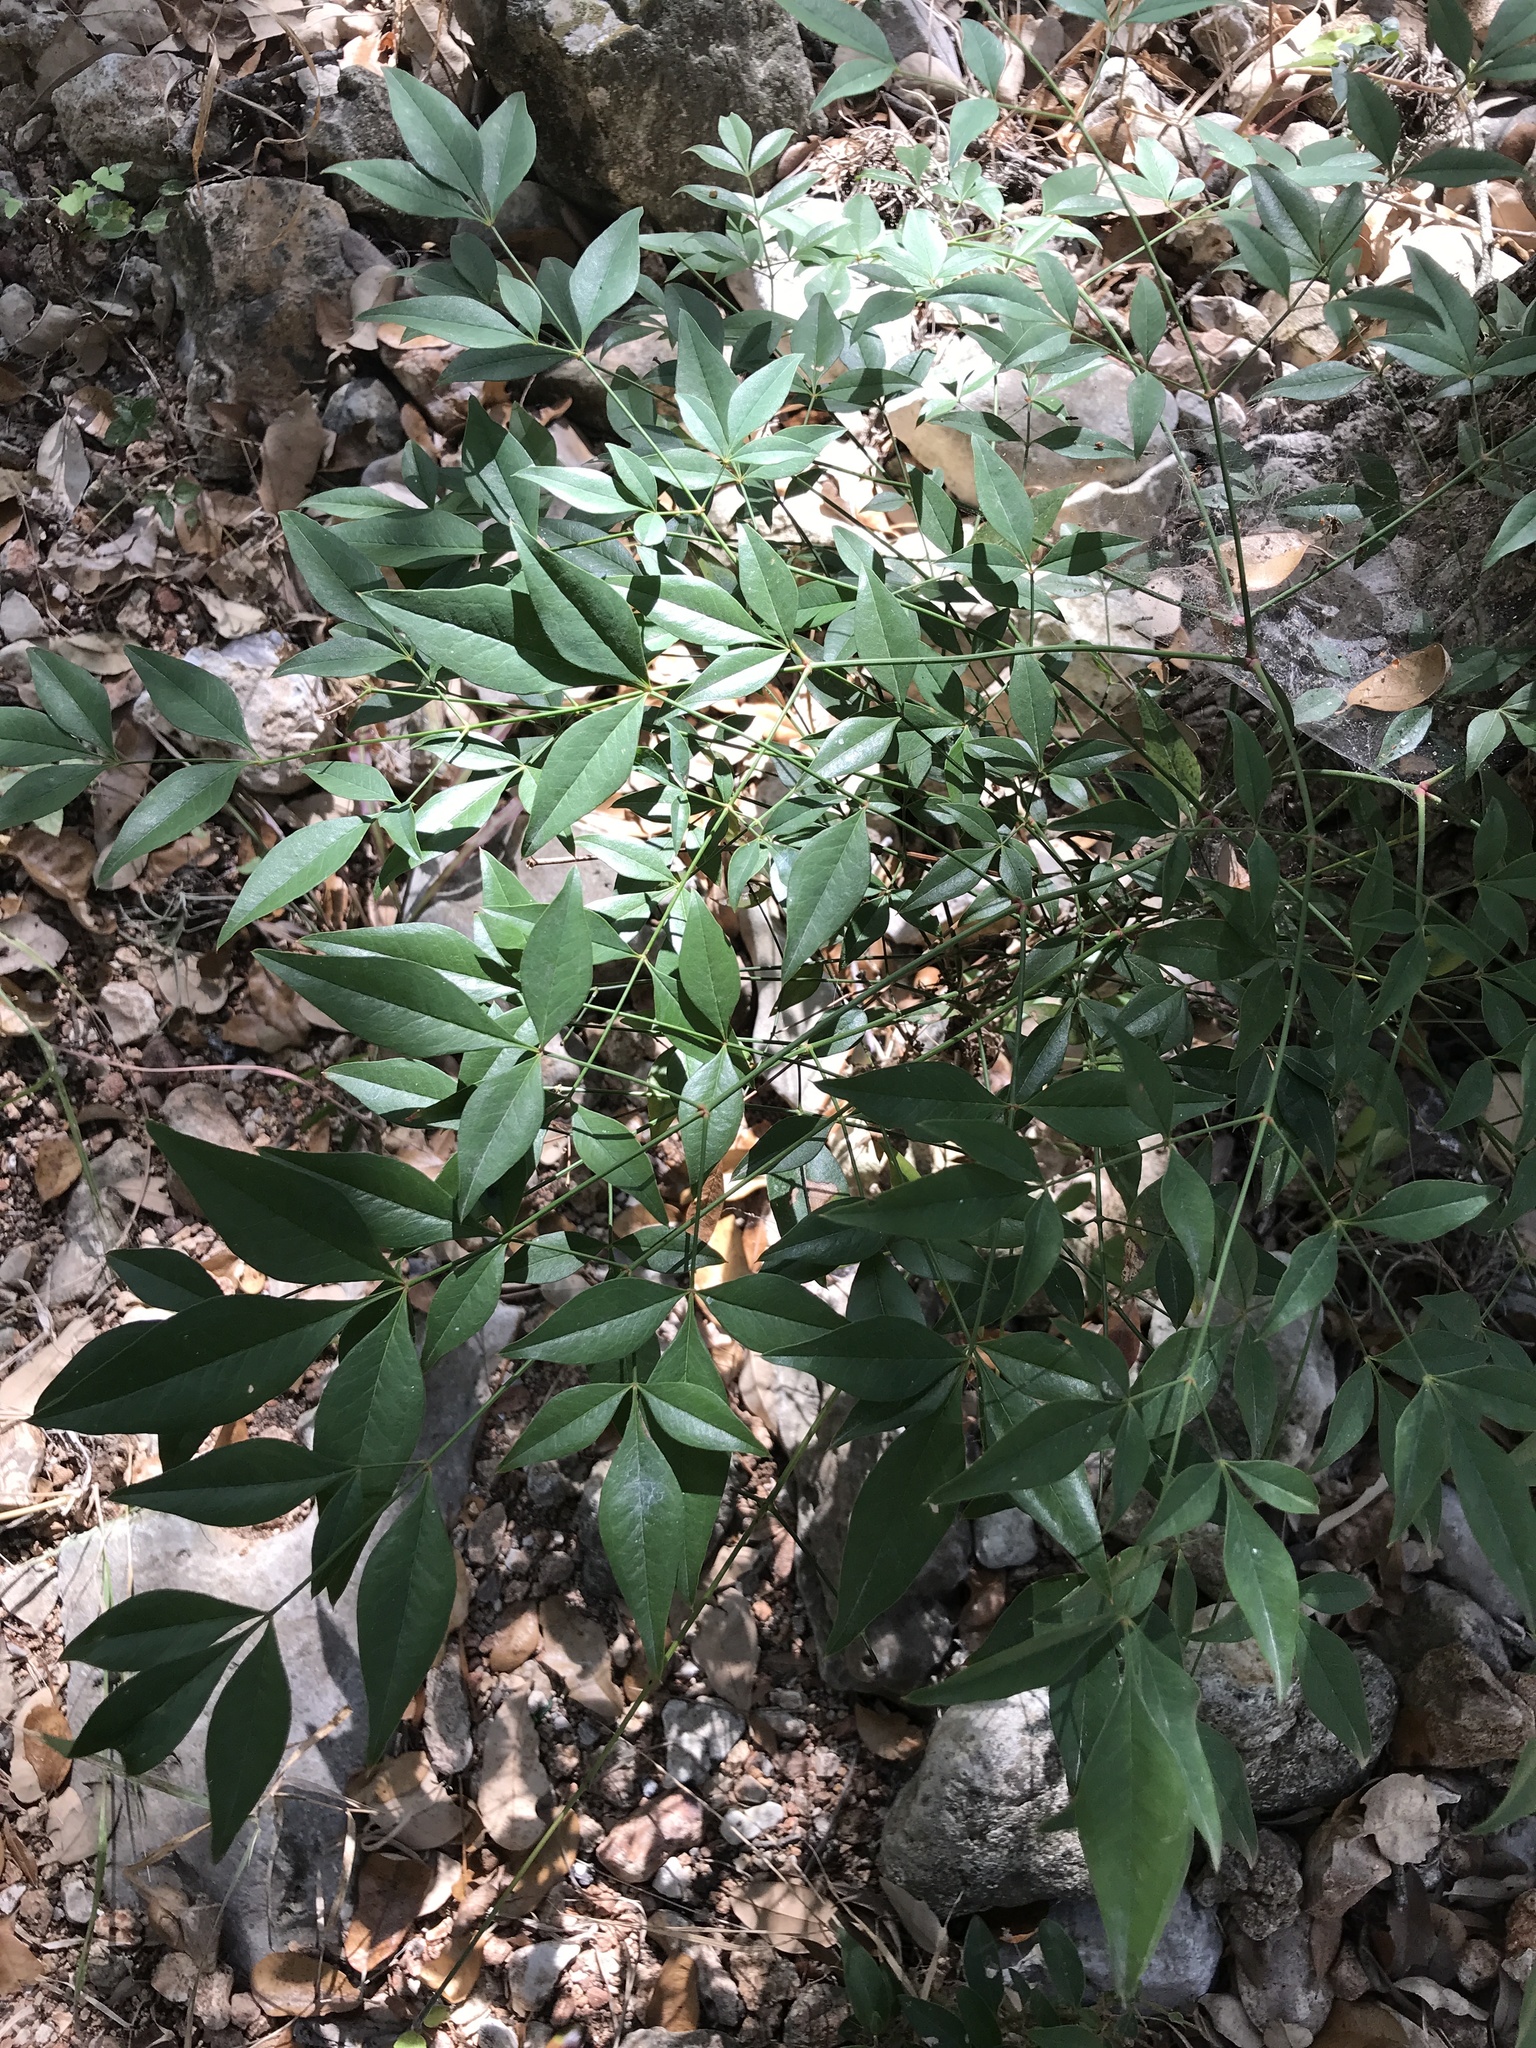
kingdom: Plantae
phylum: Tracheophyta
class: Magnoliopsida
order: Ranunculales
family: Berberidaceae
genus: Nandina
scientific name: Nandina domestica
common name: Sacred bamboo
